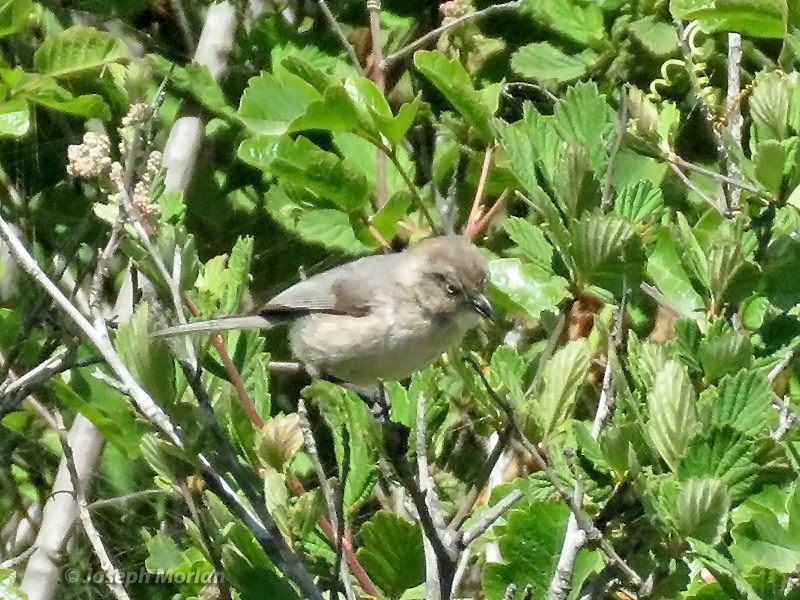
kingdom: Animalia
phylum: Chordata
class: Aves
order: Passeriformes
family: Aegithalidae
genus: Psaltriparus
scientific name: Psaltriparus minimus
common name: American bushtit
